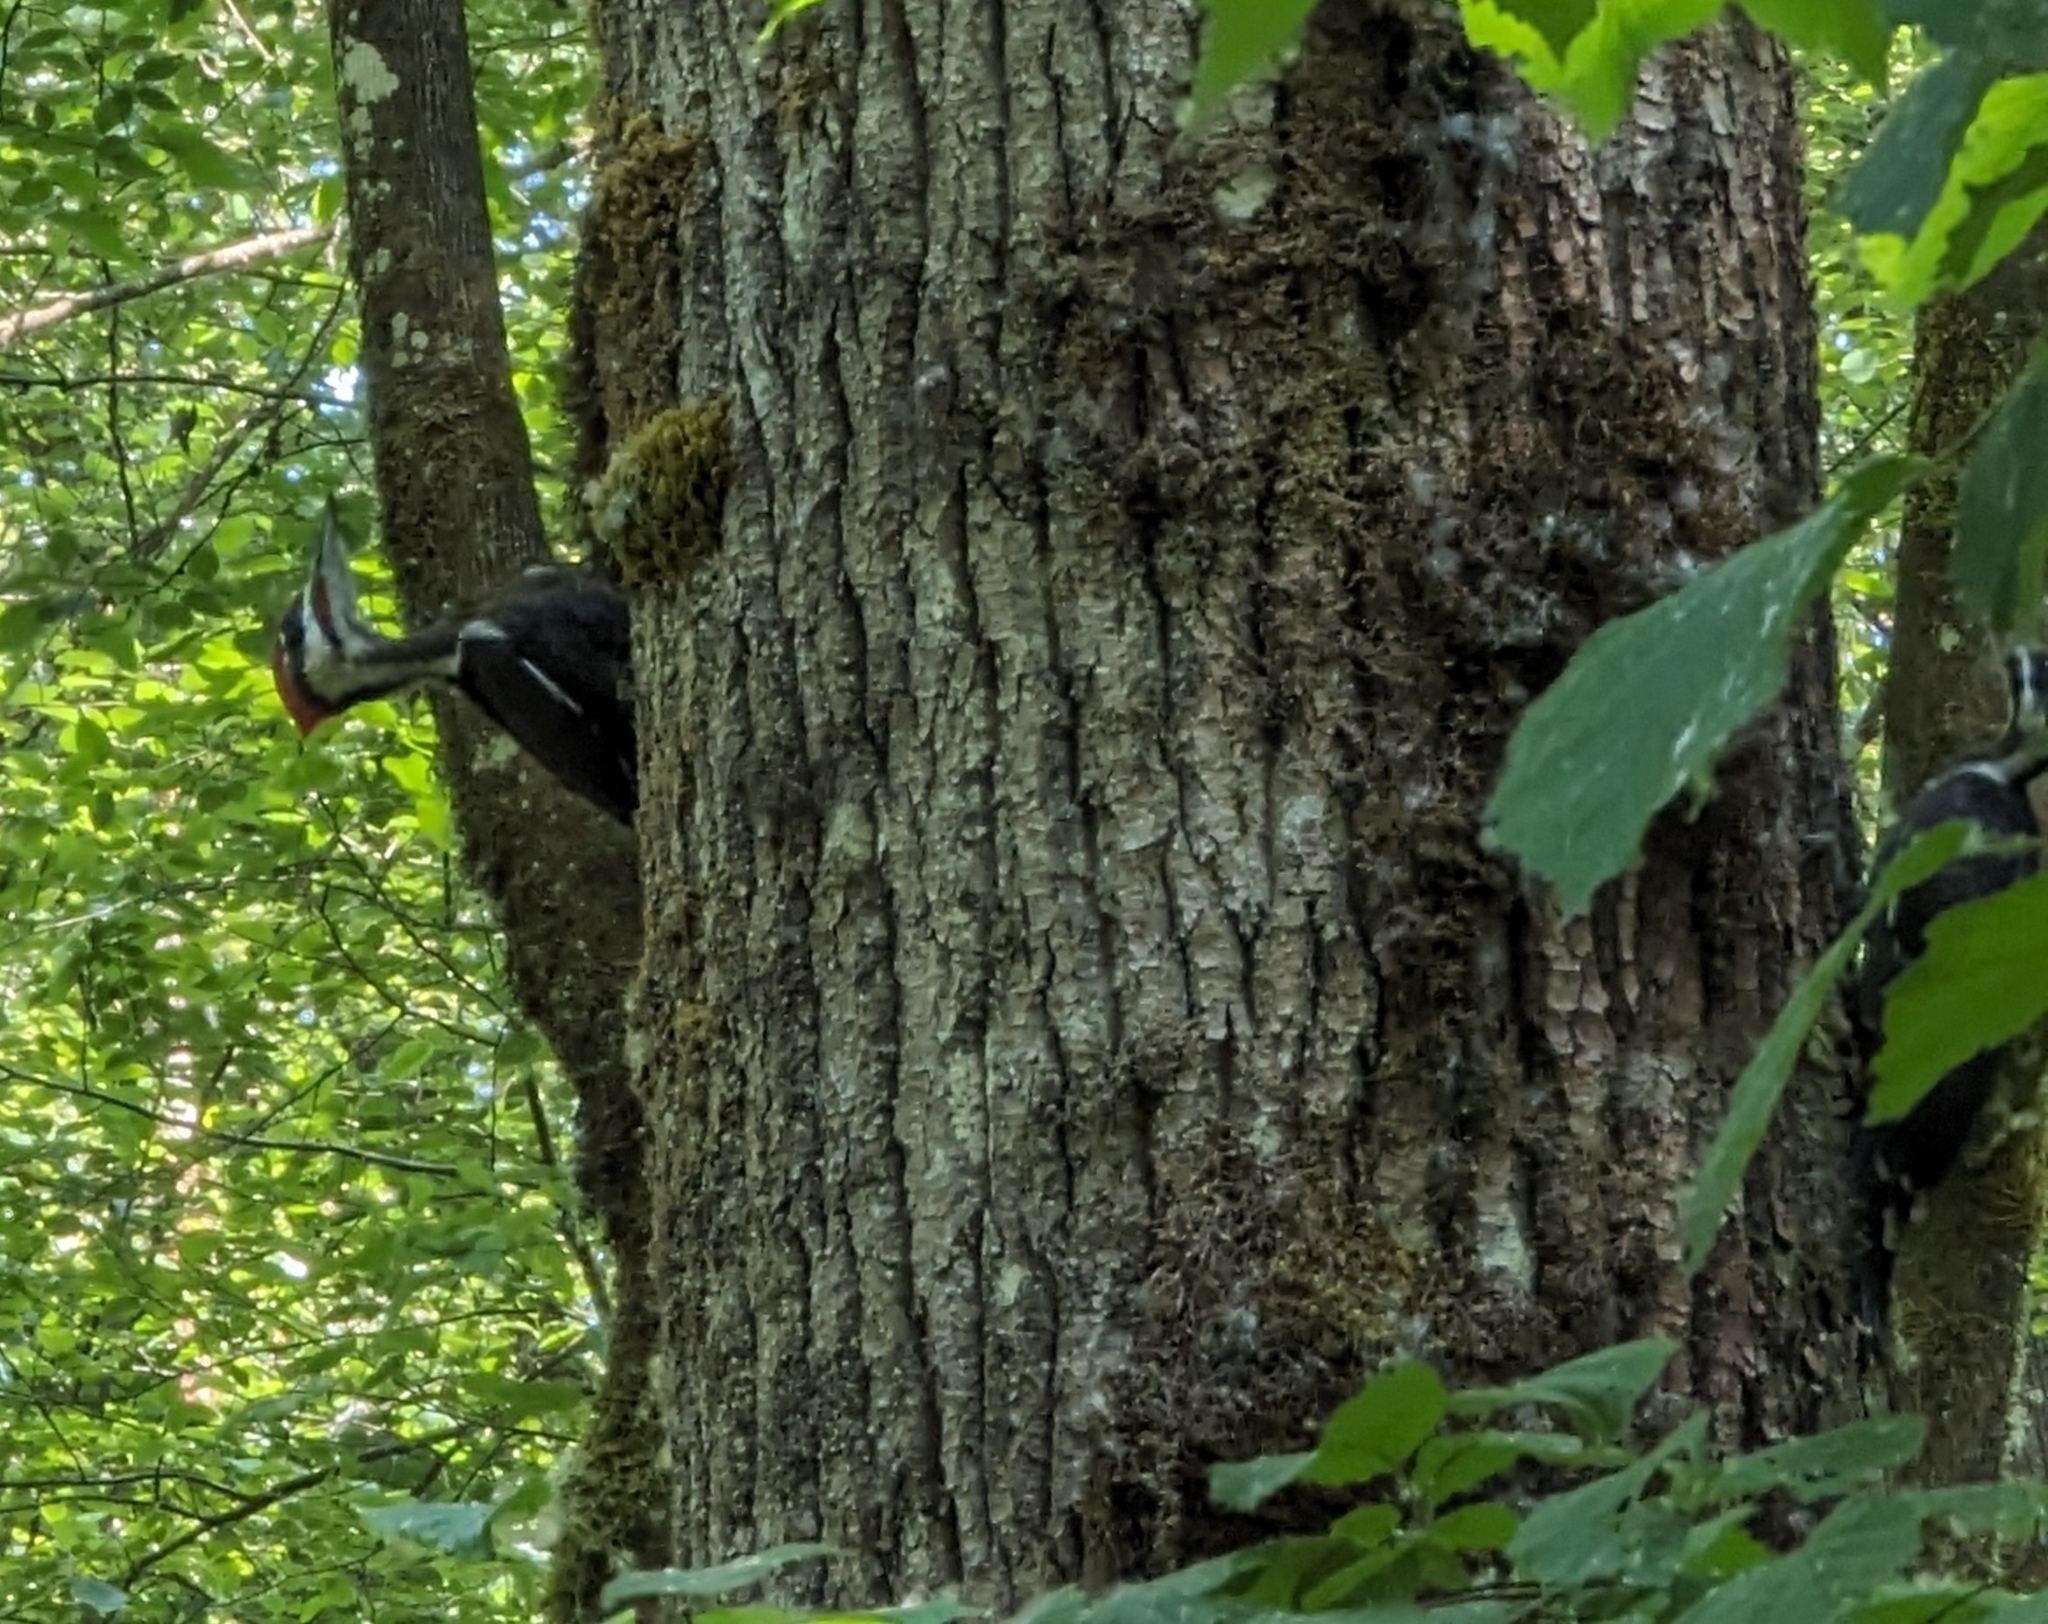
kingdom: Animalia
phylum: Chordata
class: Aves
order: Piciformes
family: Picidae
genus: Dryocopus
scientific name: Dryocopus pileatus
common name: Pileated woodpecker
